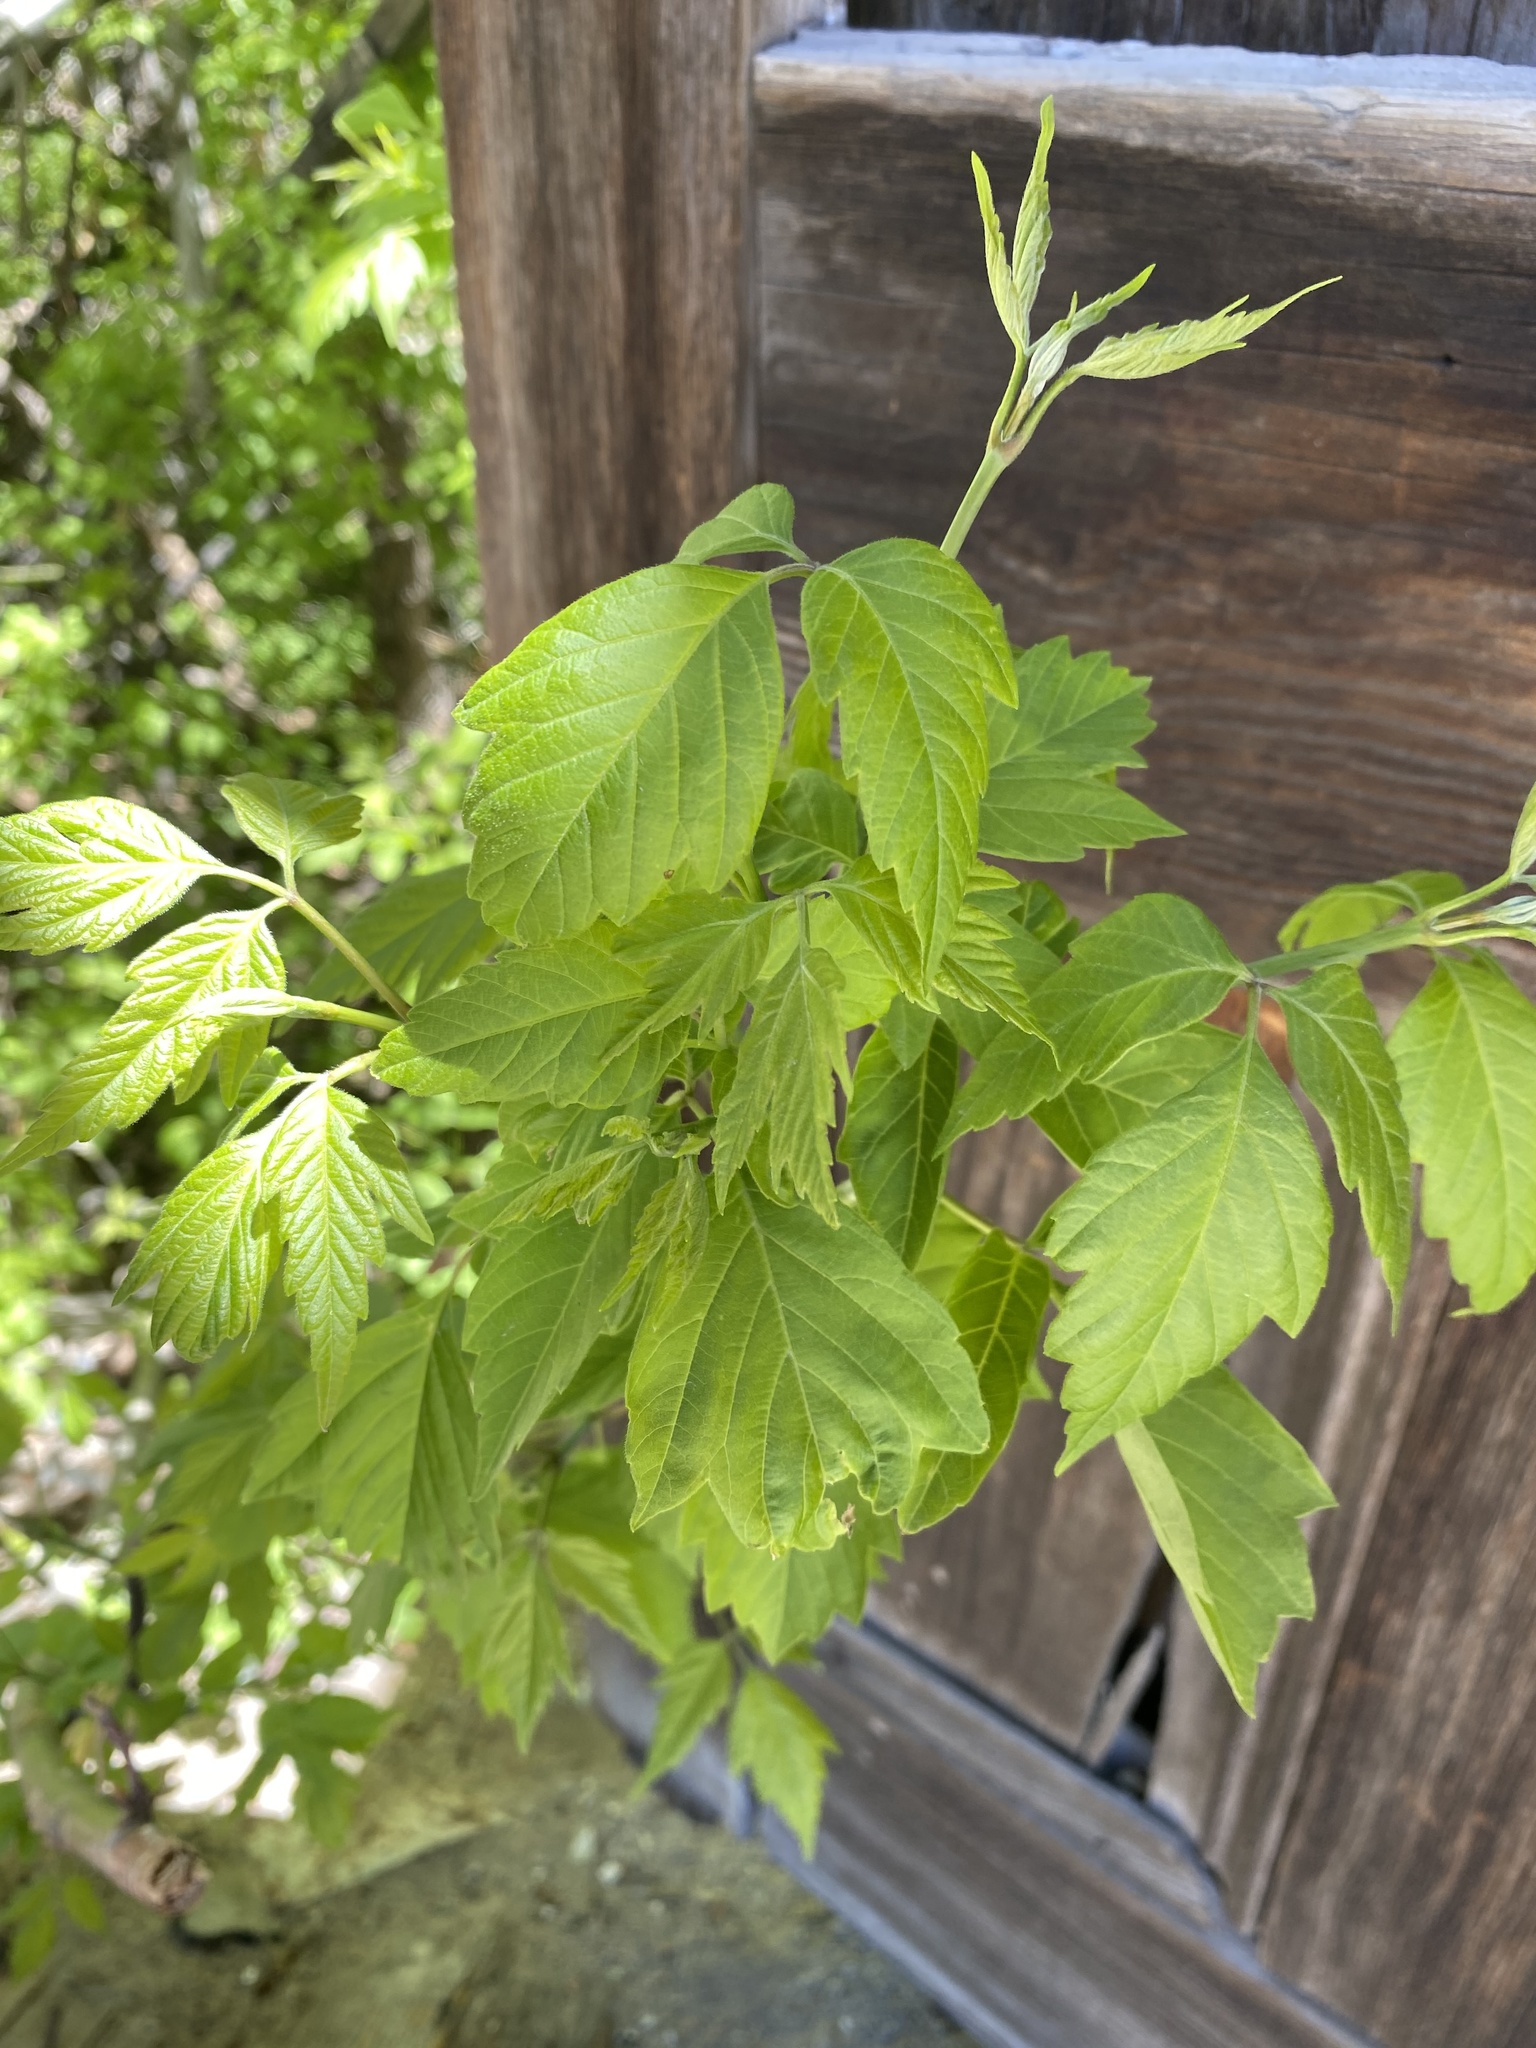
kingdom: Plantae
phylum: Tracheophyta
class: Magnoliopsida
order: Sapindales
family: Sapindaceae
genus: Acer
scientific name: Acer negundo
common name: Ashleaf maple
